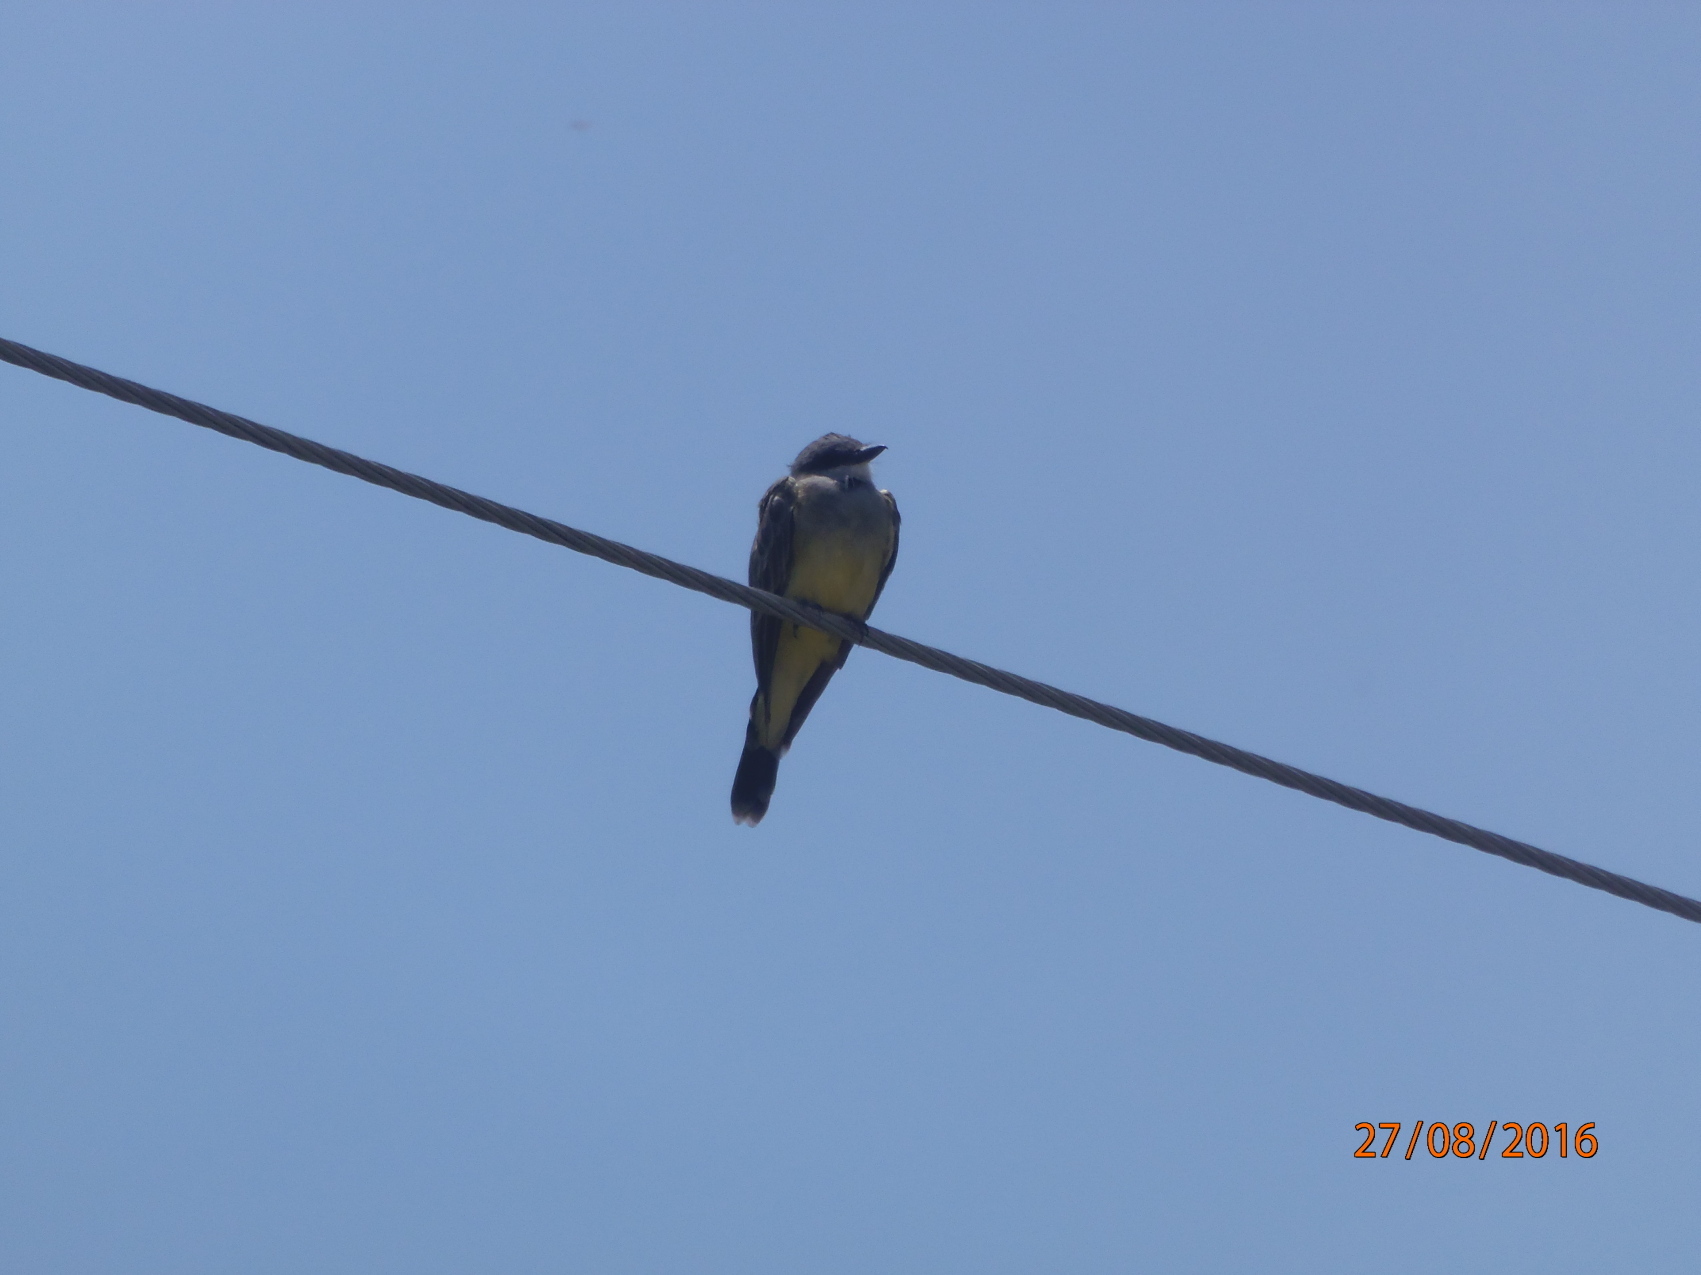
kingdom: Animalia
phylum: Chordata
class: Aves
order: Passeriformes
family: Tyrannidae
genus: Tyrannus
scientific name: Tyrannus vociferans
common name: Cassin's kingbird
